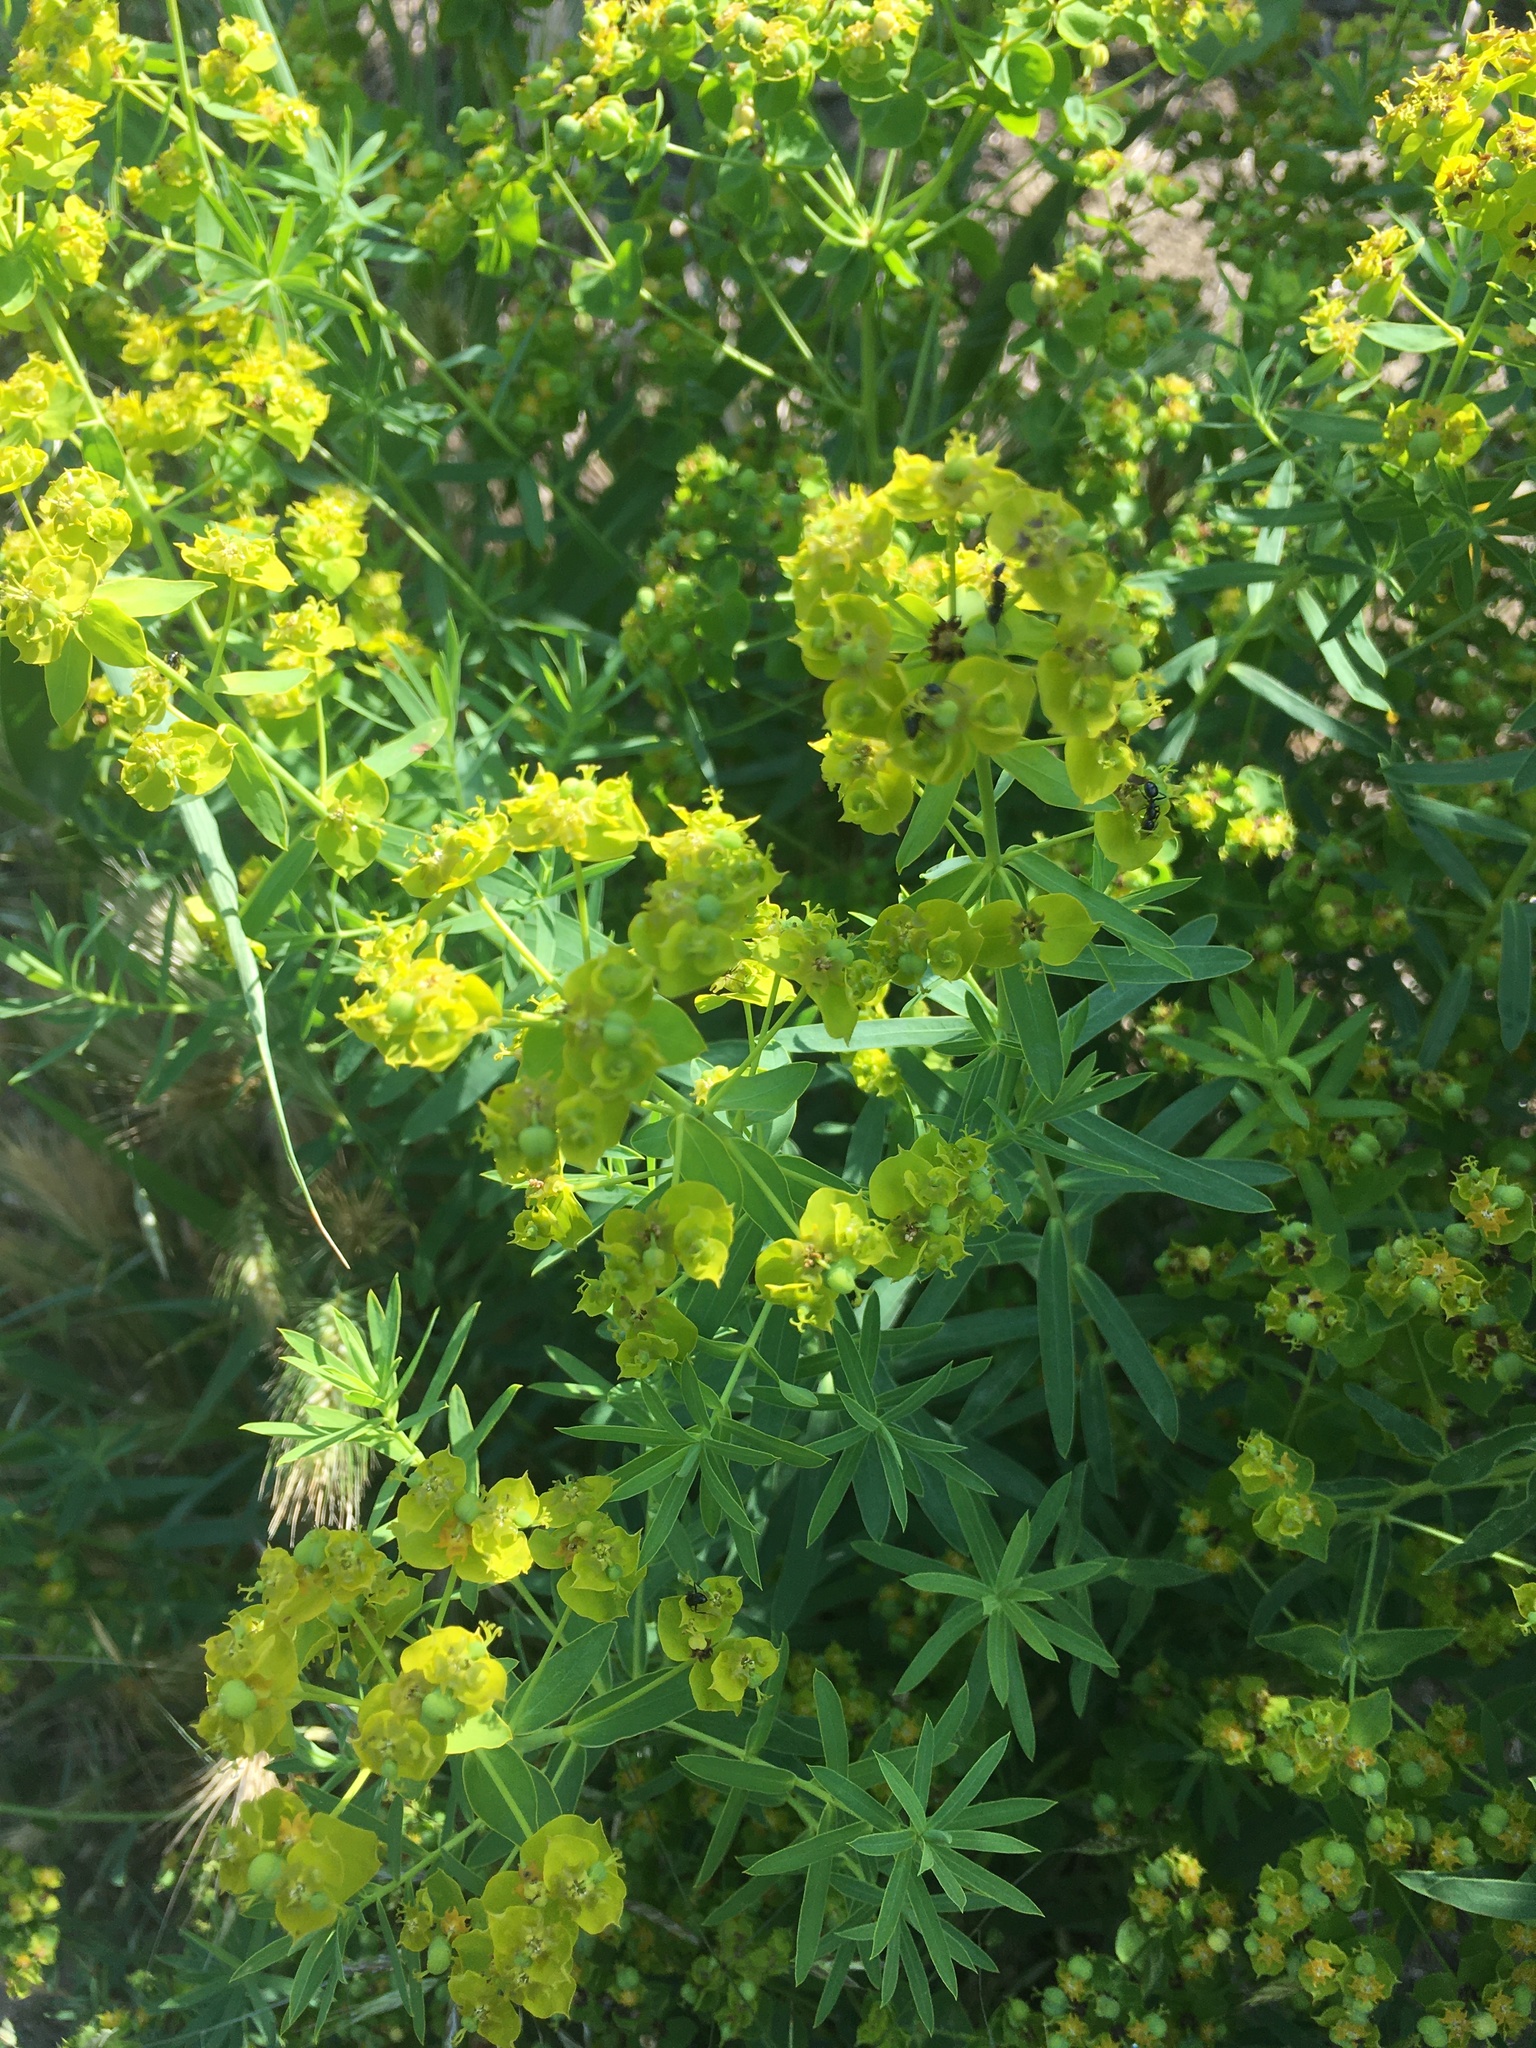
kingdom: Plantae
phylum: Tracheophyta
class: Magnoliopsida
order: Malpighiales
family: Euphorbiaceae
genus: Euphorbia
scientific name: Euphorbia virgata
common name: Leafy spurge
